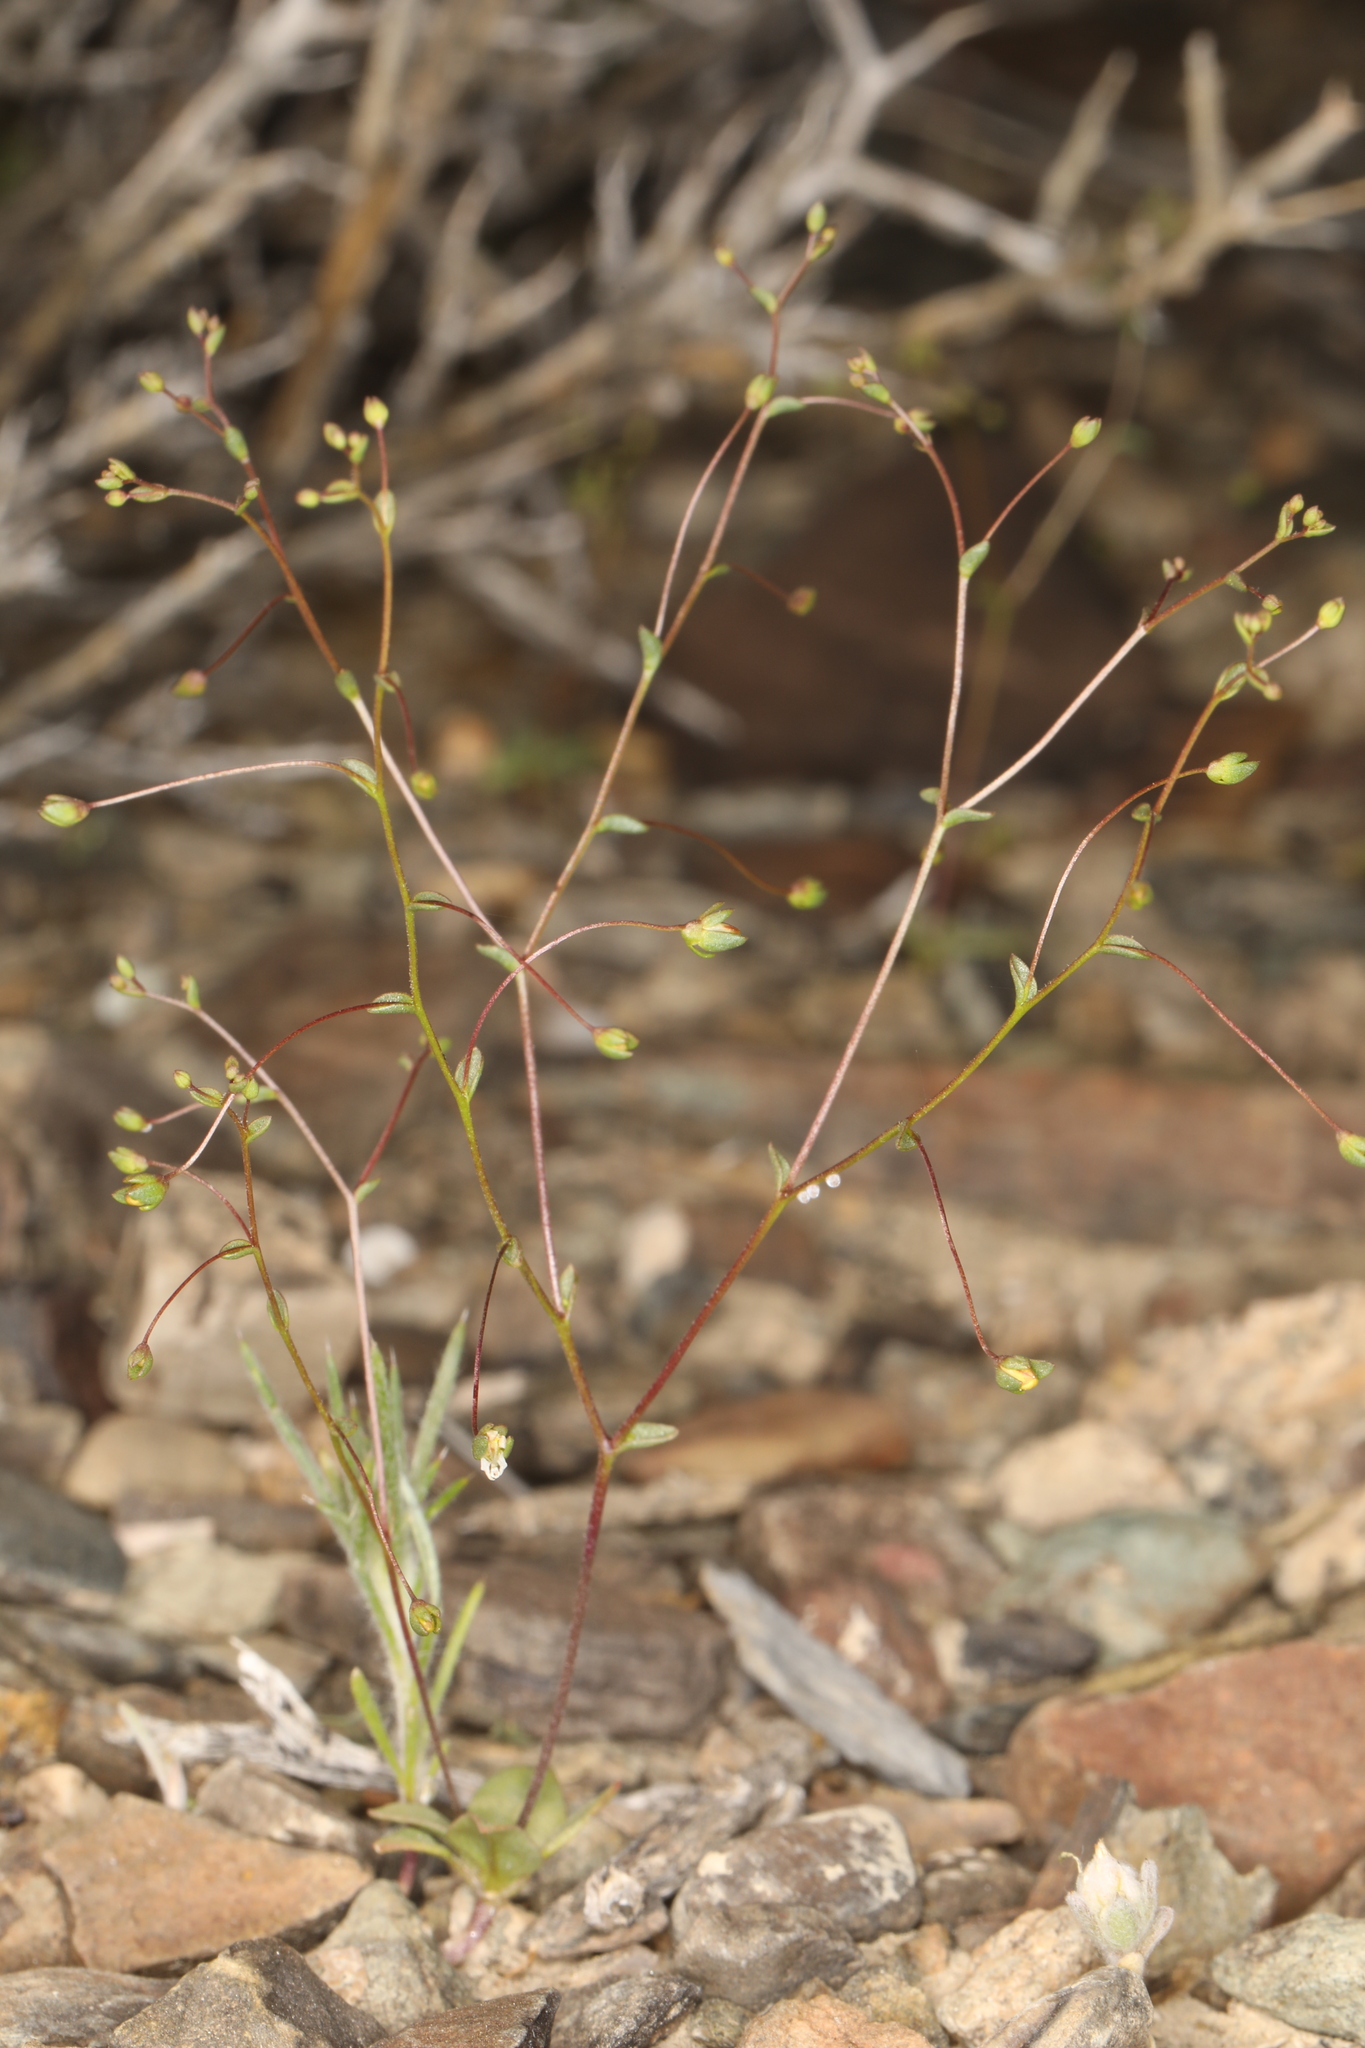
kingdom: Plantae
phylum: Tracheophyta
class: Magnoliopsida
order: Asterales
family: Campanulaceae
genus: Nemacladus
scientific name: Nemacladus morefieldii
